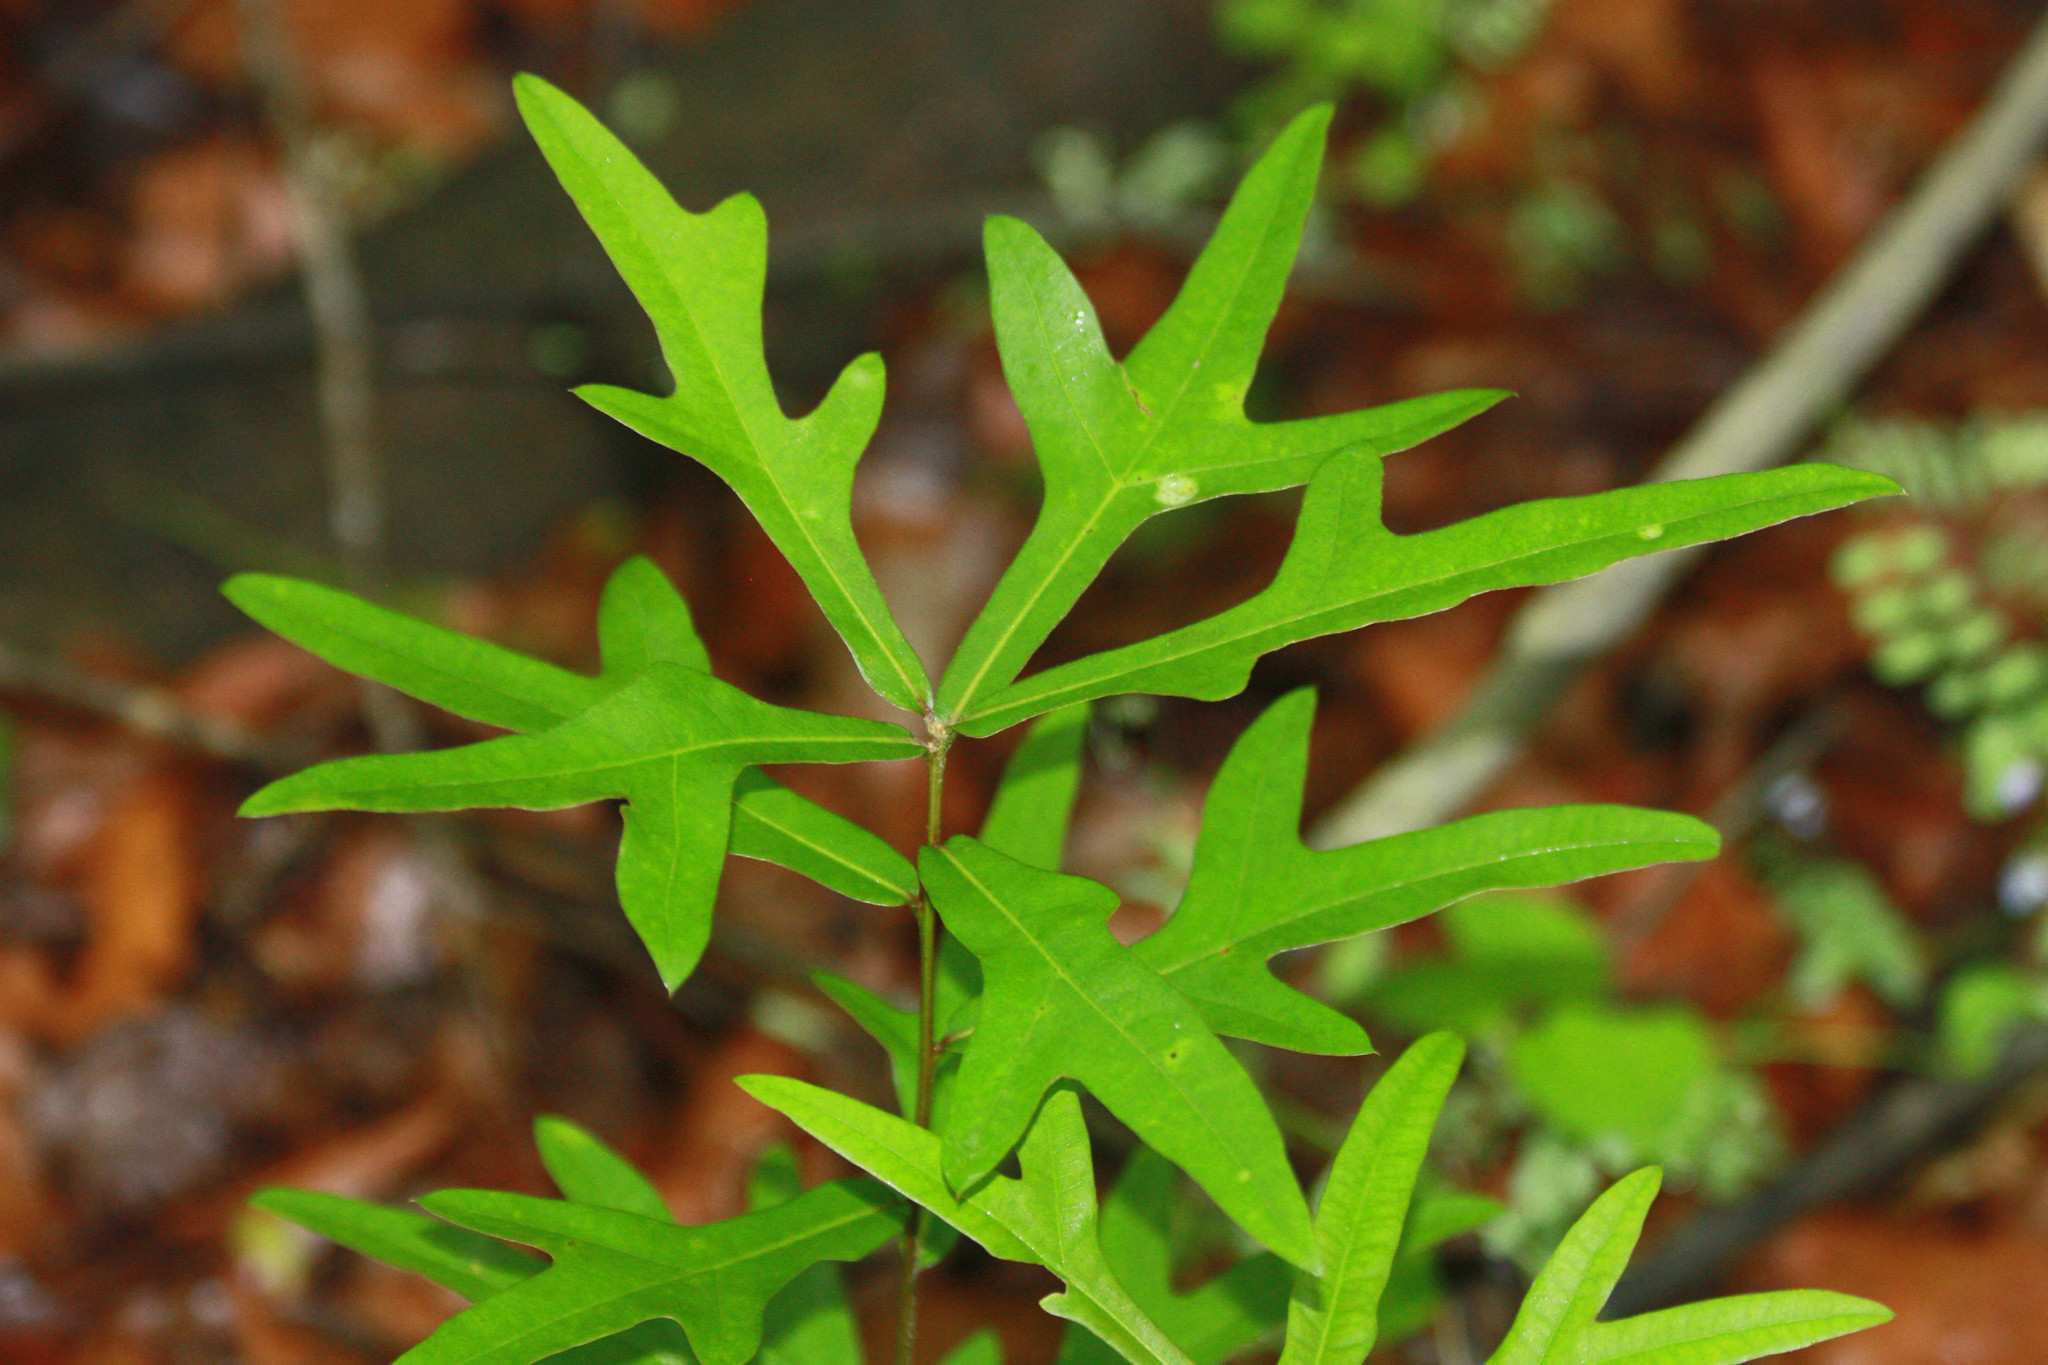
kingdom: Plantae
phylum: Tracheophyta
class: Magnoliopsida
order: Fagales
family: Fagaceae
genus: Quercus
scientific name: Quercus nigra
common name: Water oak
